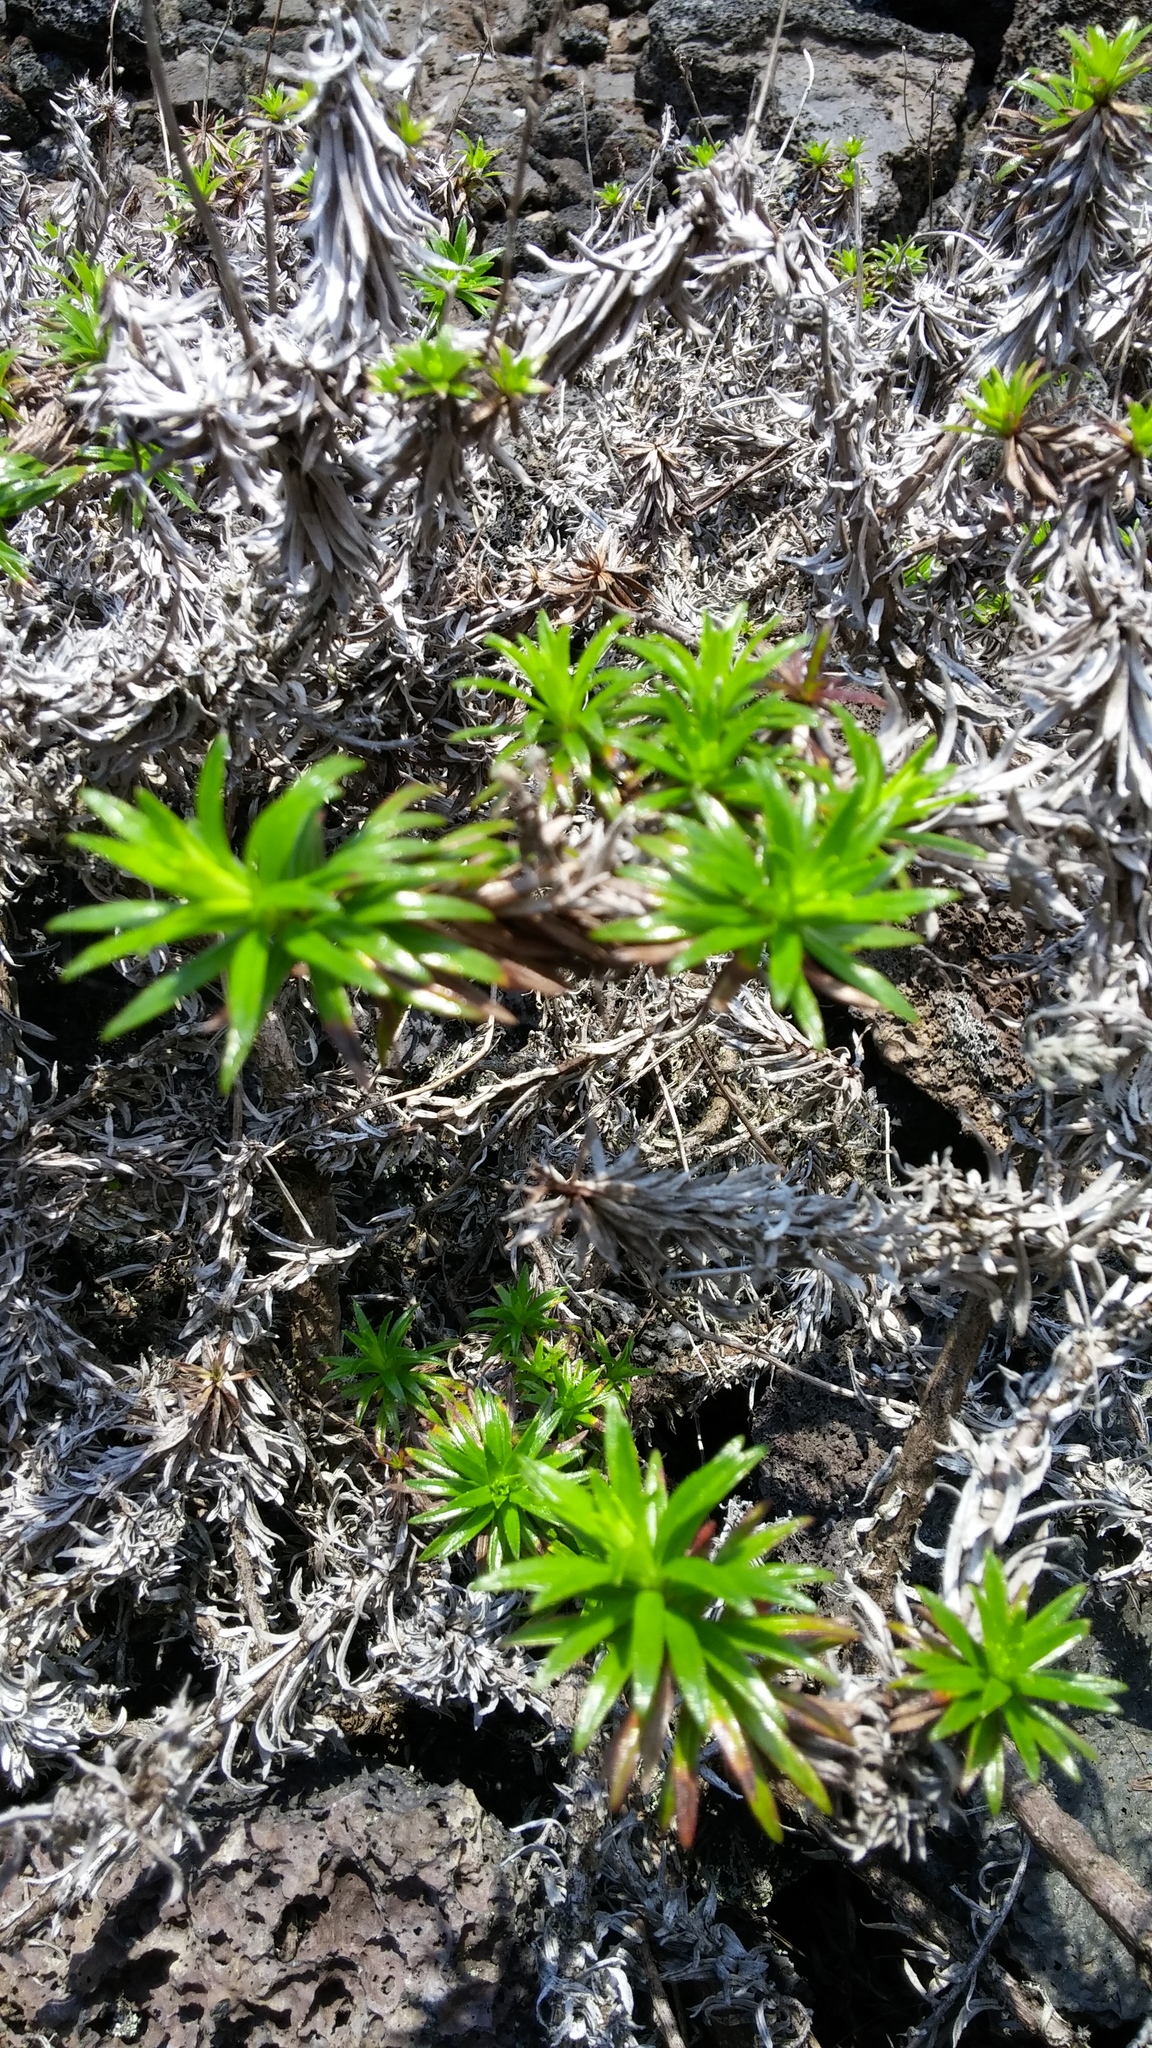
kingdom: Plantae
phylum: Tracheophyta
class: Magnoliopsida
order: Asterales
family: Asteraceae
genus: Dubautia
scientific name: Dubautia scabra
